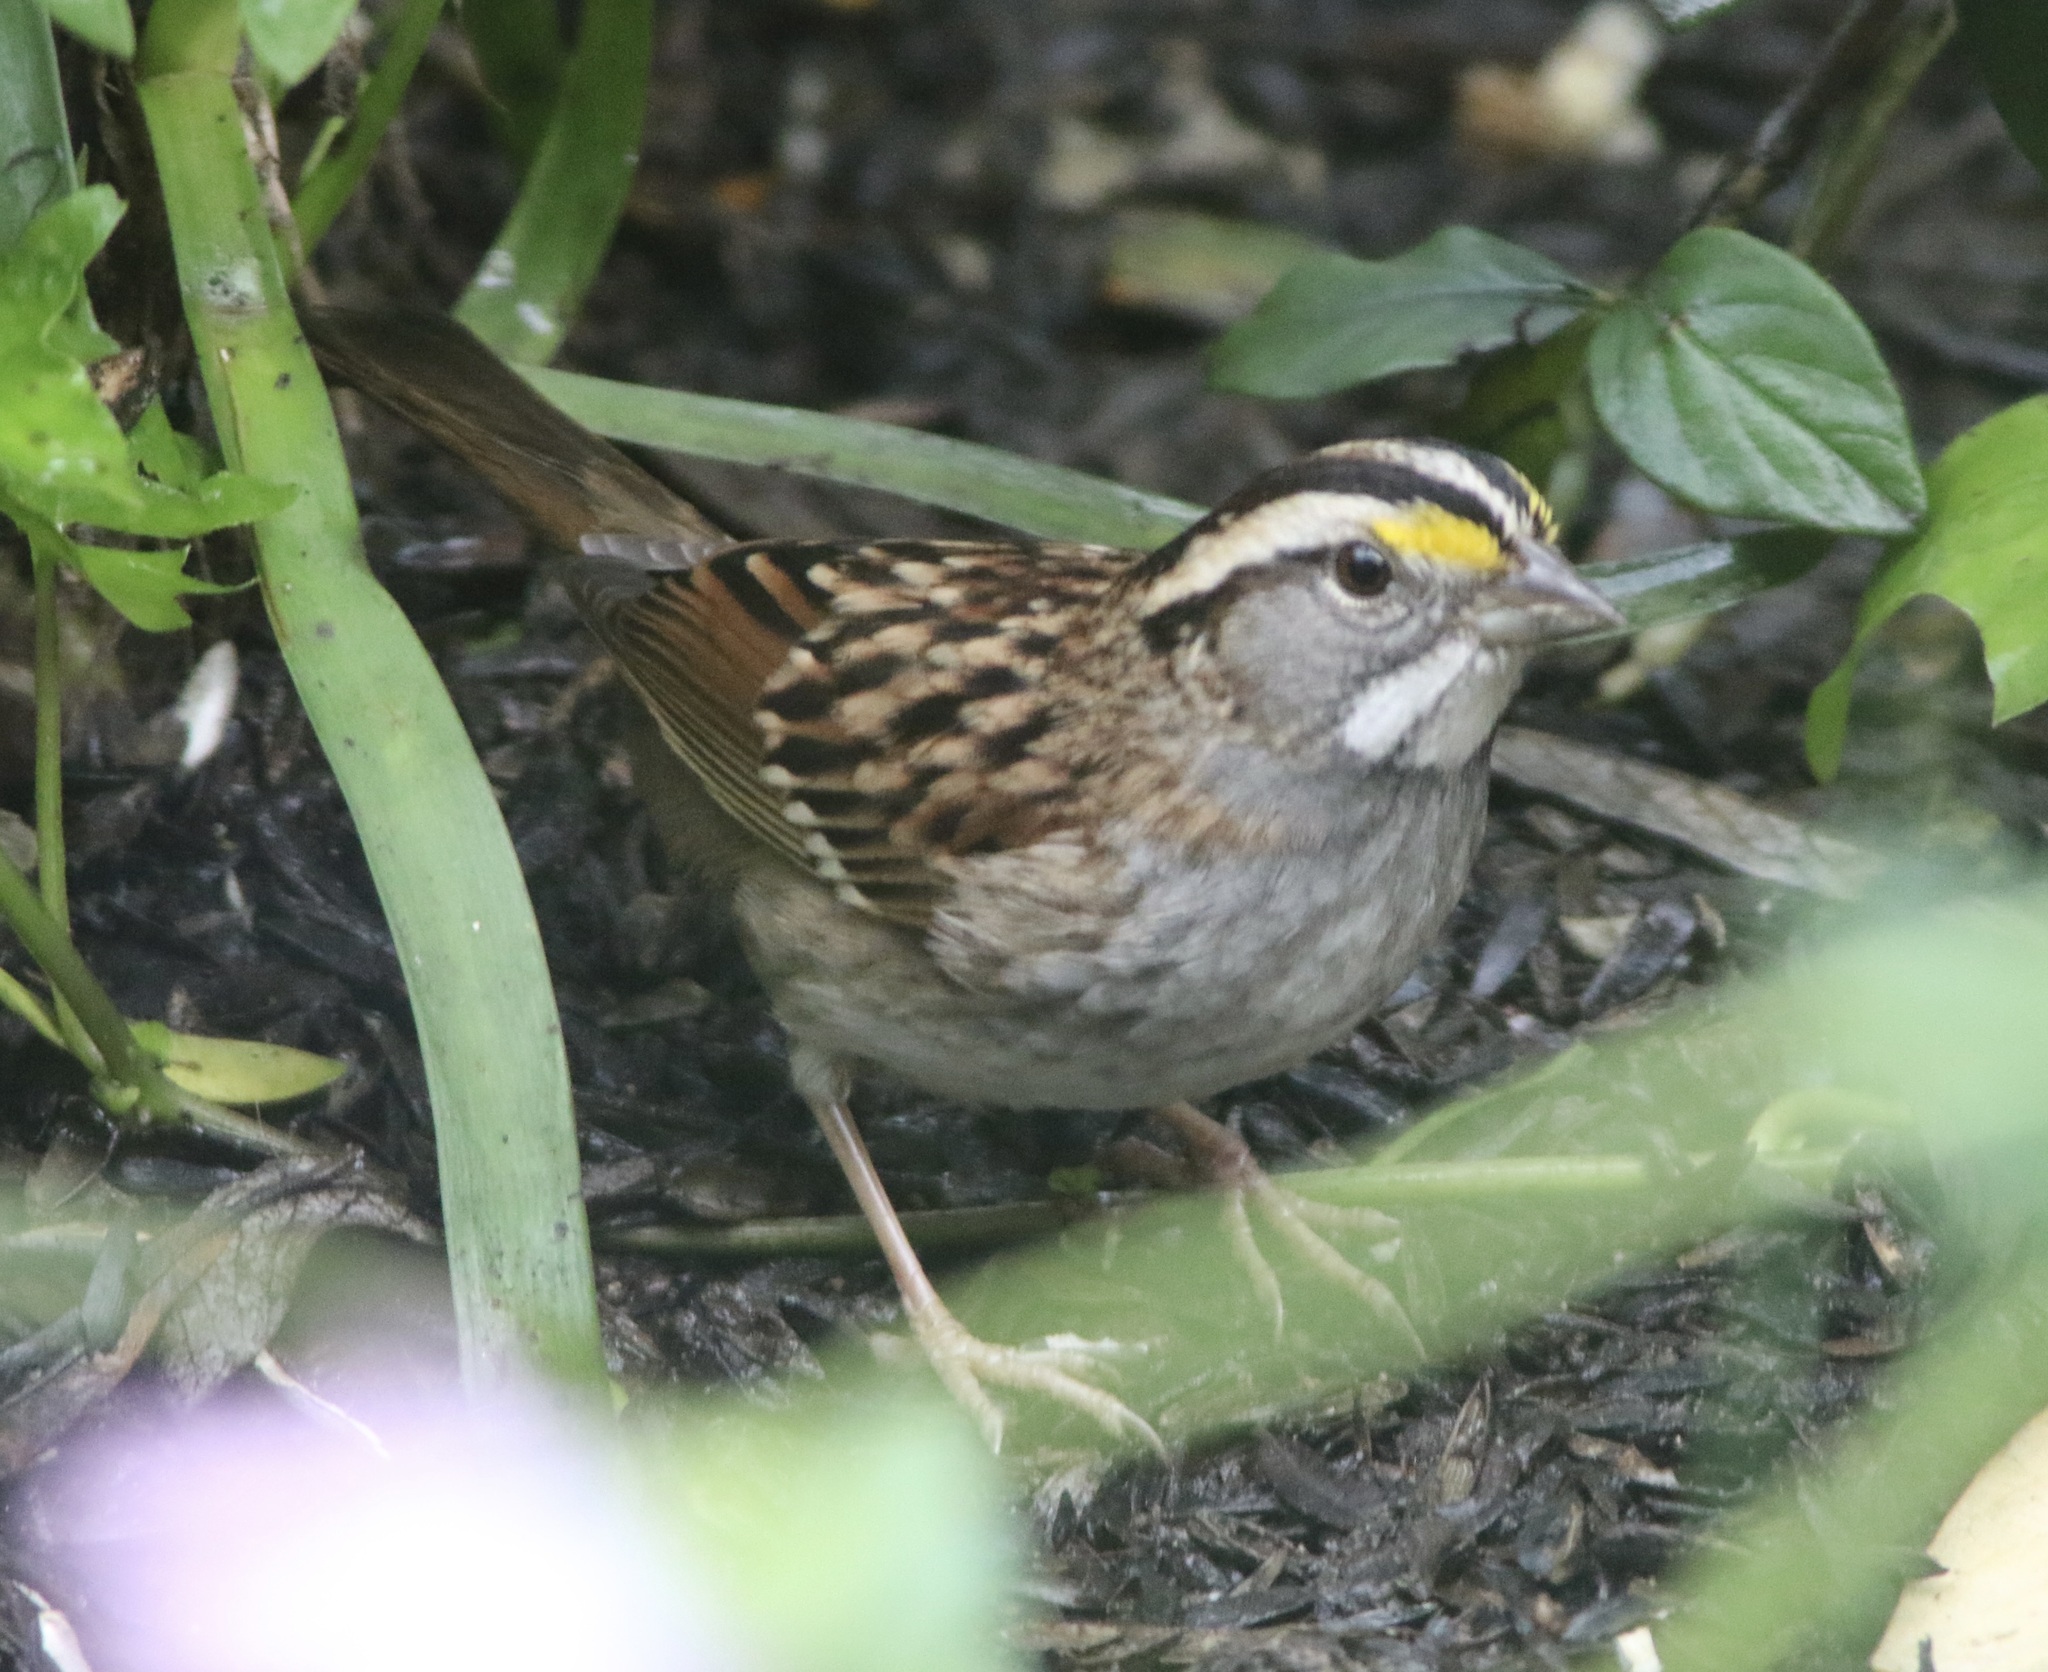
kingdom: Animalia
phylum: Chordata
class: Aves
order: Passeriformes
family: Passerellidae
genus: Zonotrichia
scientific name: Zonotrichia albicollis
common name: White-throated sparrow
